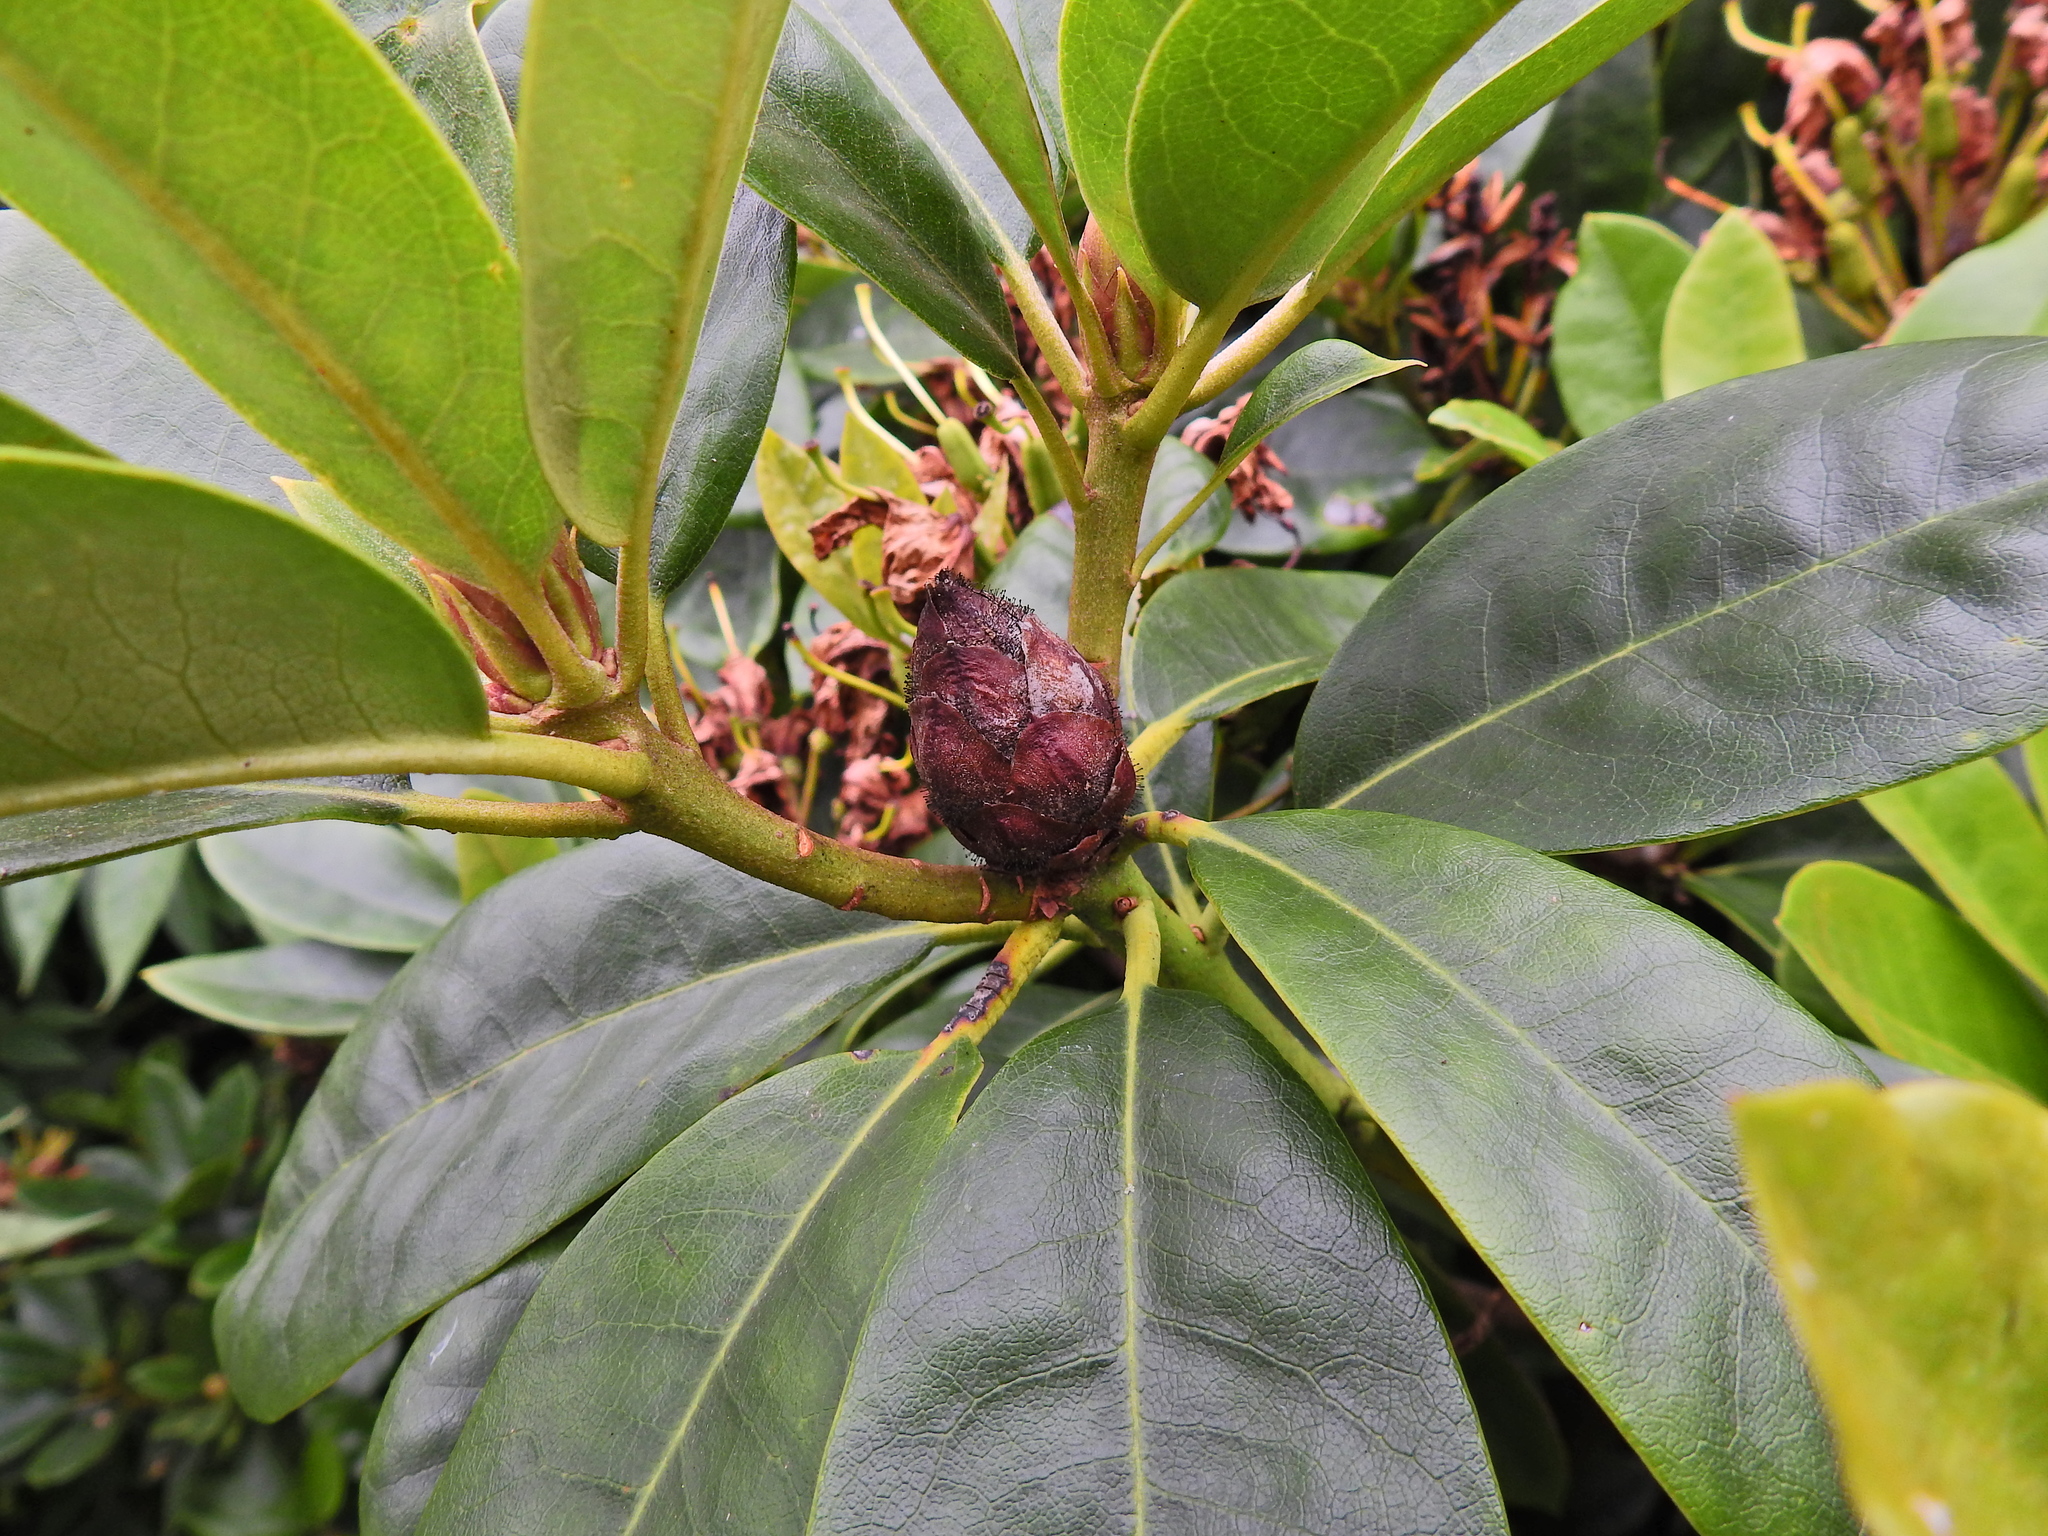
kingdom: Fungi
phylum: Ascomycota
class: Dothideomycetes
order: Pleosporales
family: Melanommataceae
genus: Seifertia
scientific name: Seifertia azaleae
